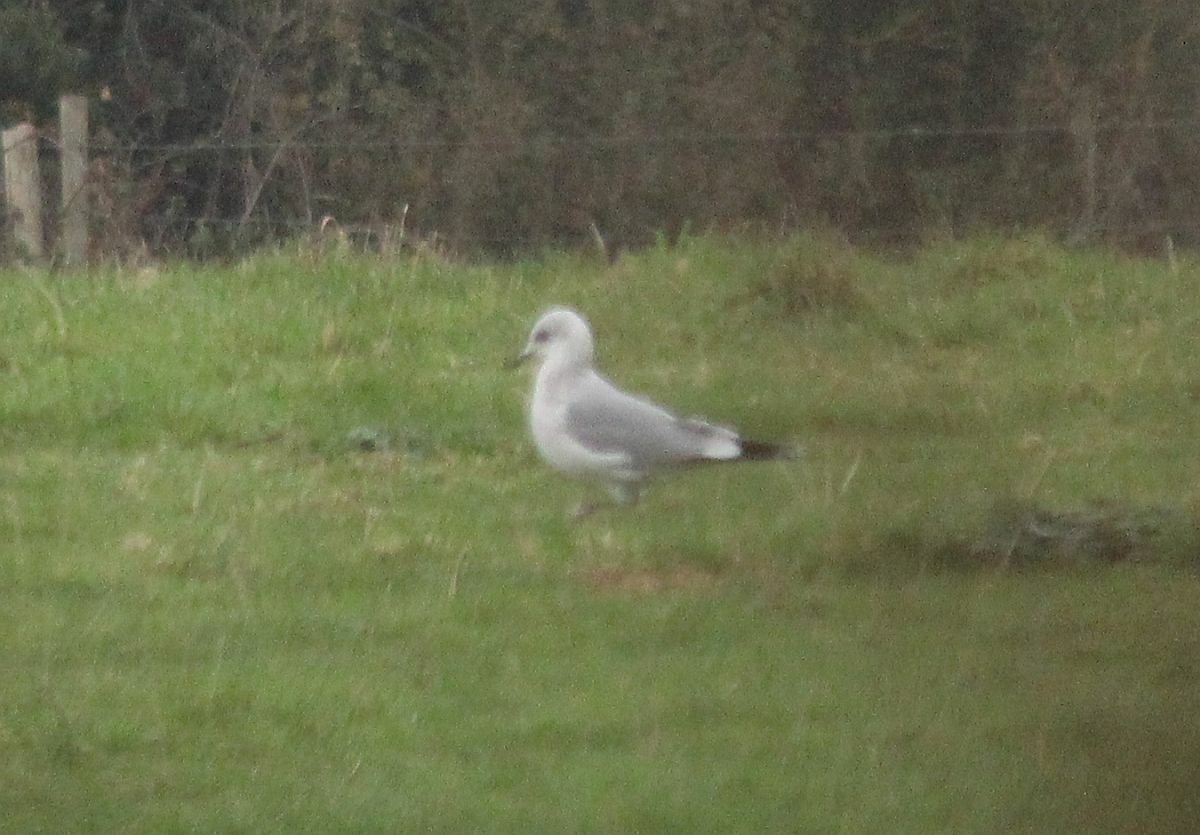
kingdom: Animalia
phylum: Chordata
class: Aves
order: Charadriiformes
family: Laridae
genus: Larus
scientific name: Larus canus
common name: Mew gull
